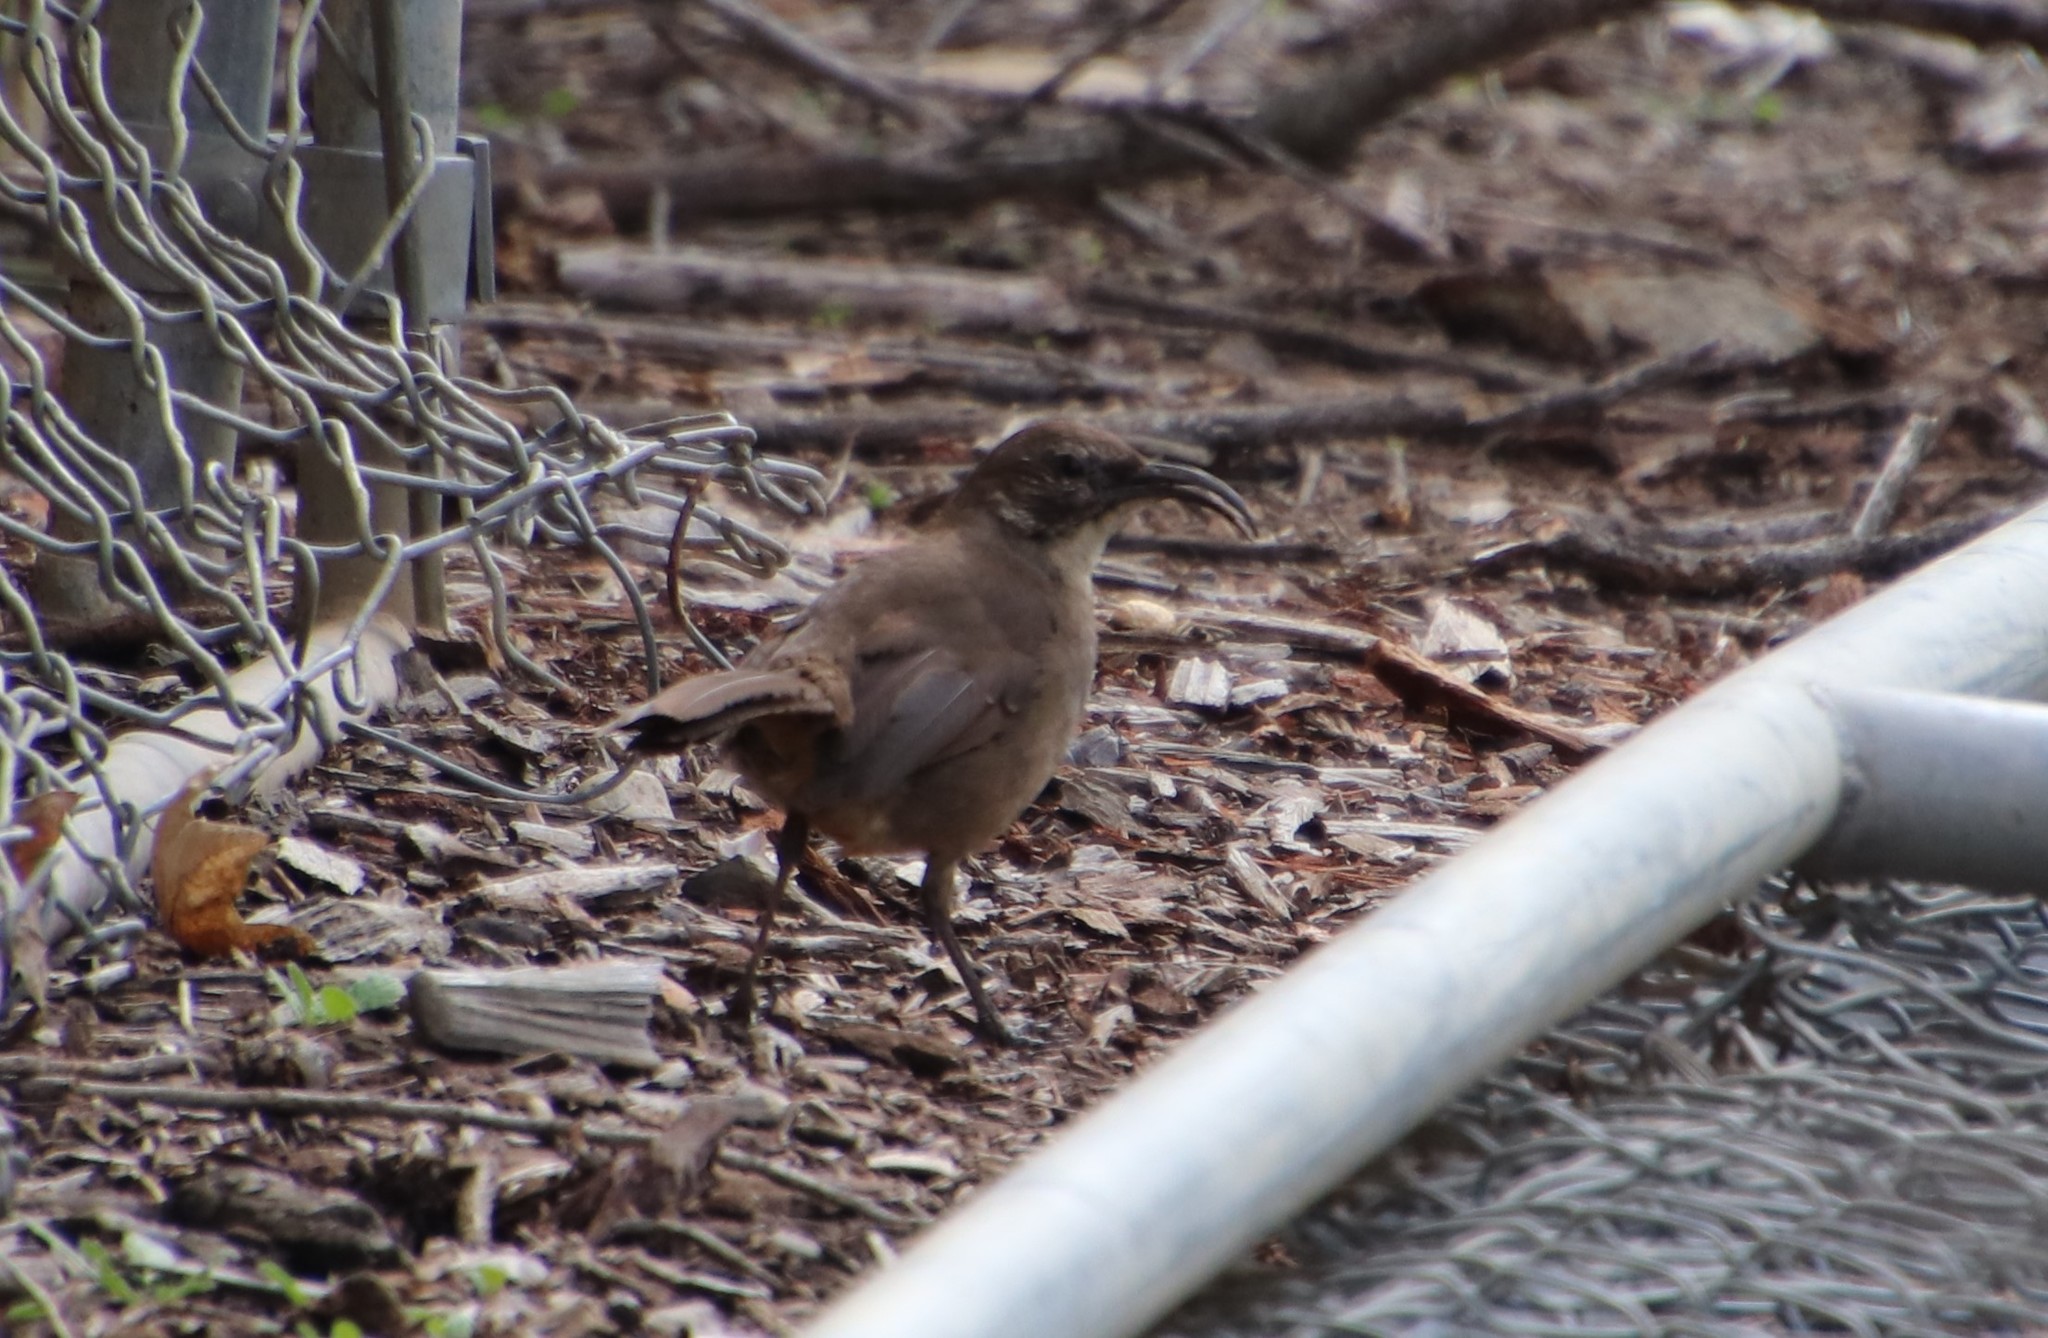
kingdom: Animalia
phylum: Chordata
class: Aves
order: Passeriformes
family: Mimidae
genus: Toxostoma
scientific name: Toxostoma redivivum
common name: California thrasher
